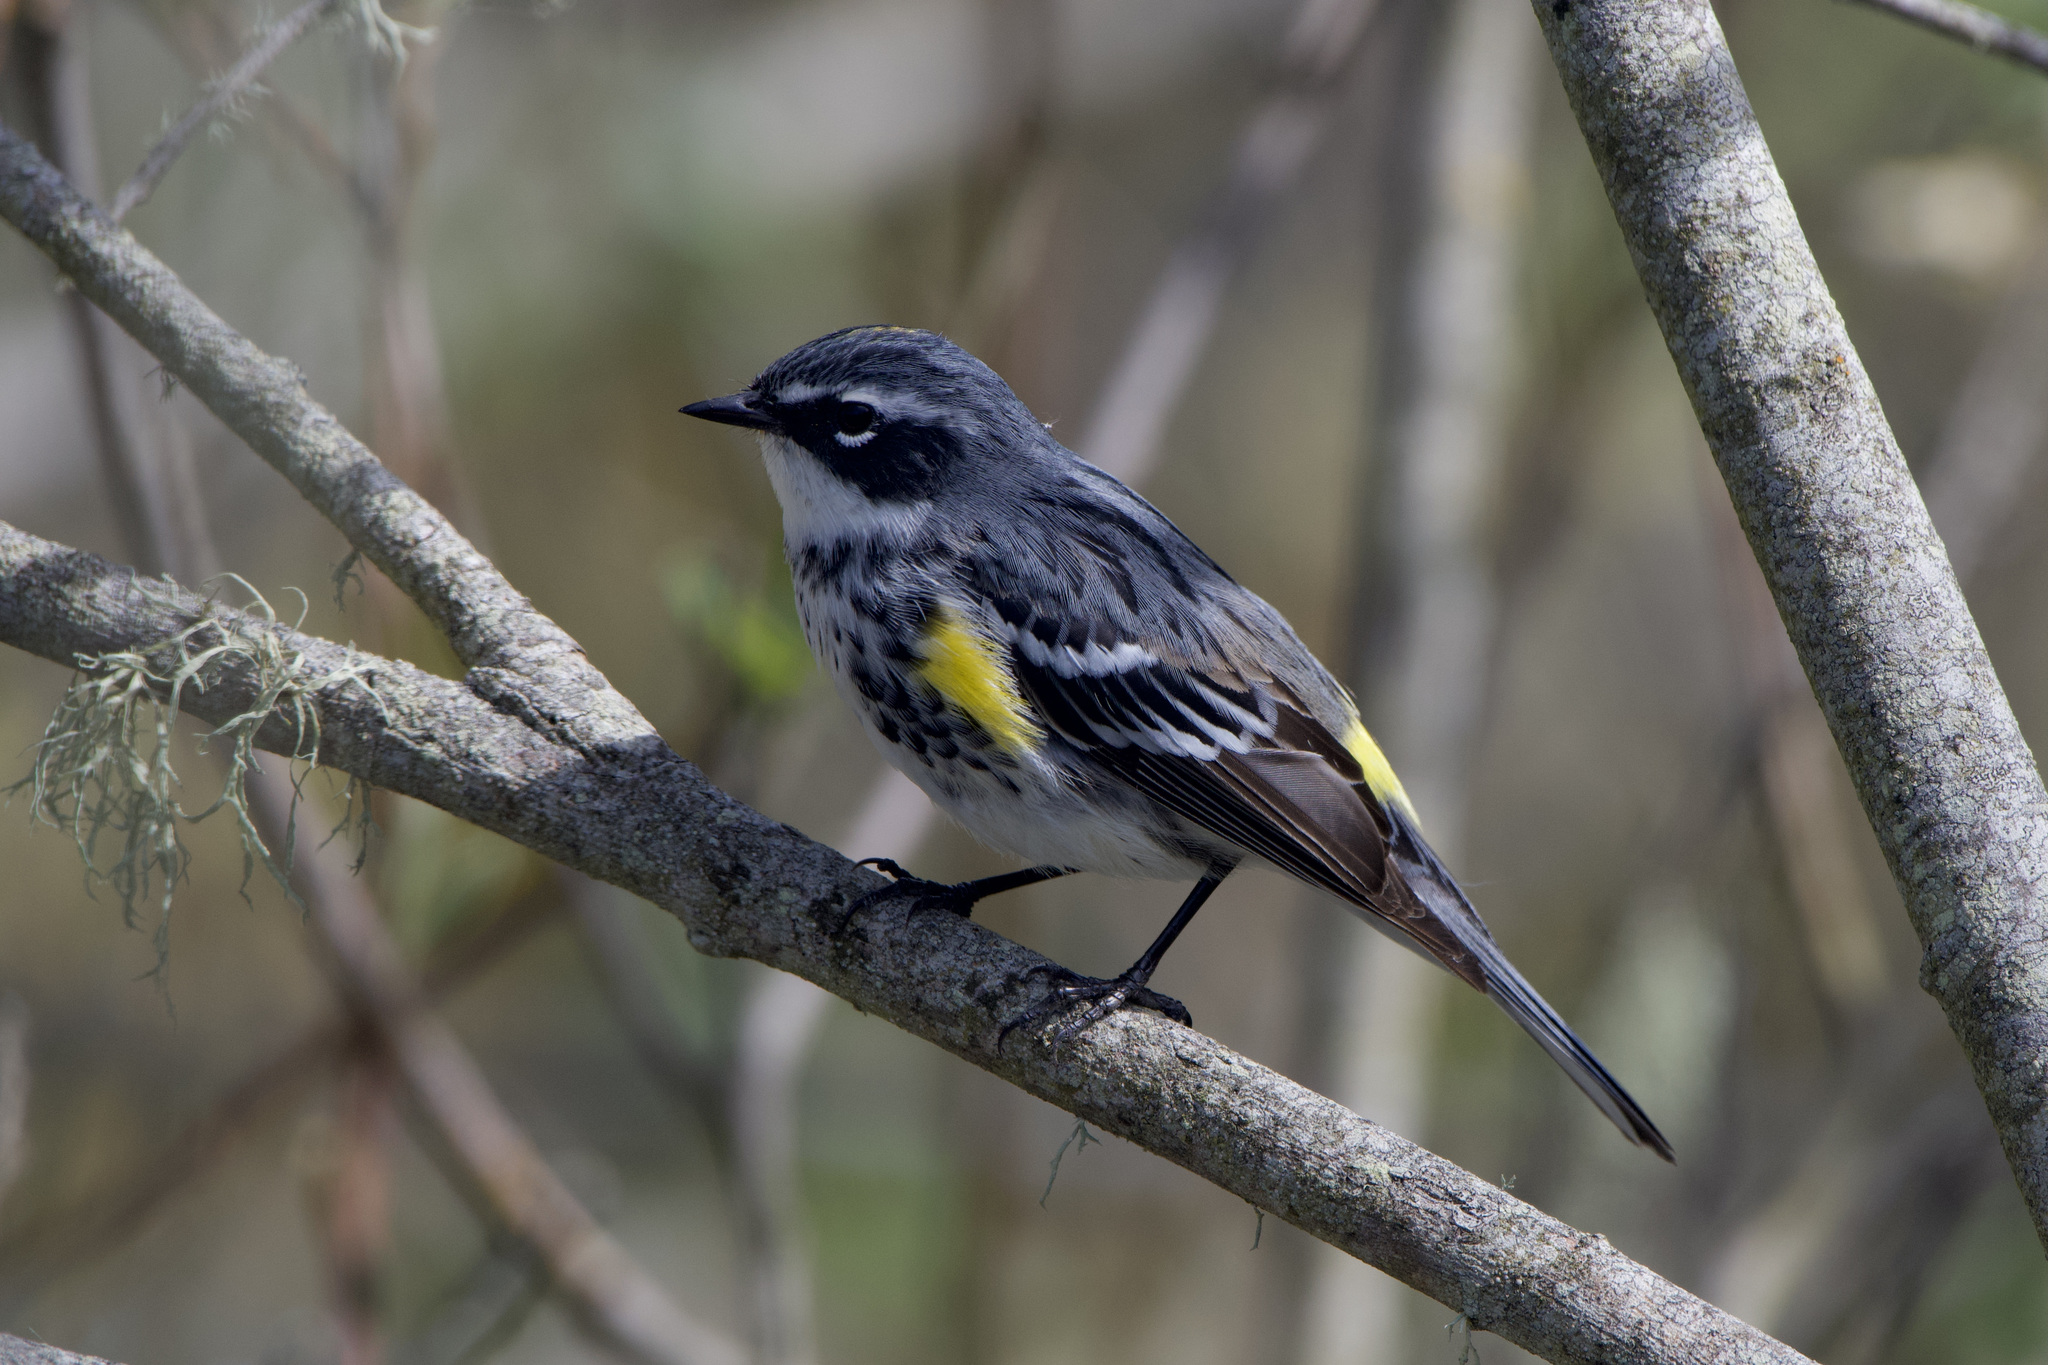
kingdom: Animalia
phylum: Chordata
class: Aves
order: Passeriformes
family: Parulidae
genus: Setophaga
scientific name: Setophaga coronata
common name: Myrtle warbler
